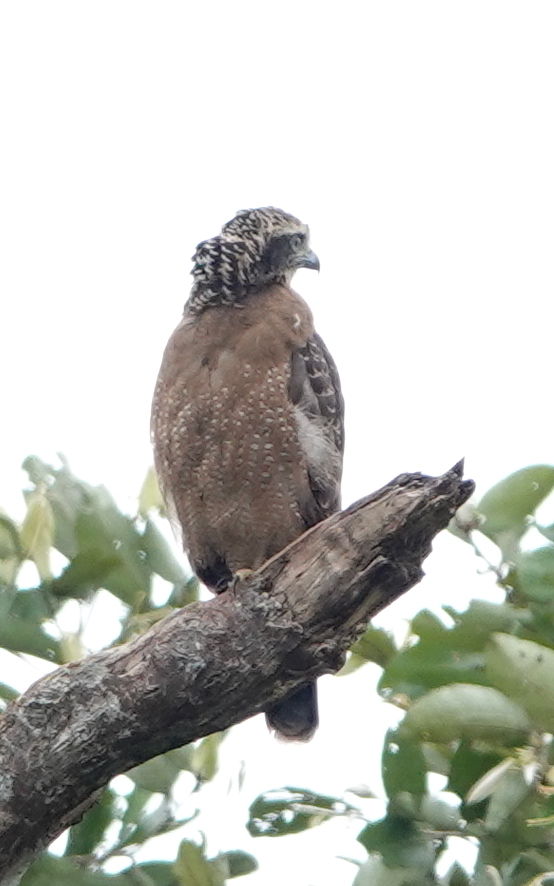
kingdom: Animalia
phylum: Chordata
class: Aves
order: Accipitriformes
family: Accipitridae
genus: Spilornis
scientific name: Spilornis cheela
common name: Crested serpent eagle
